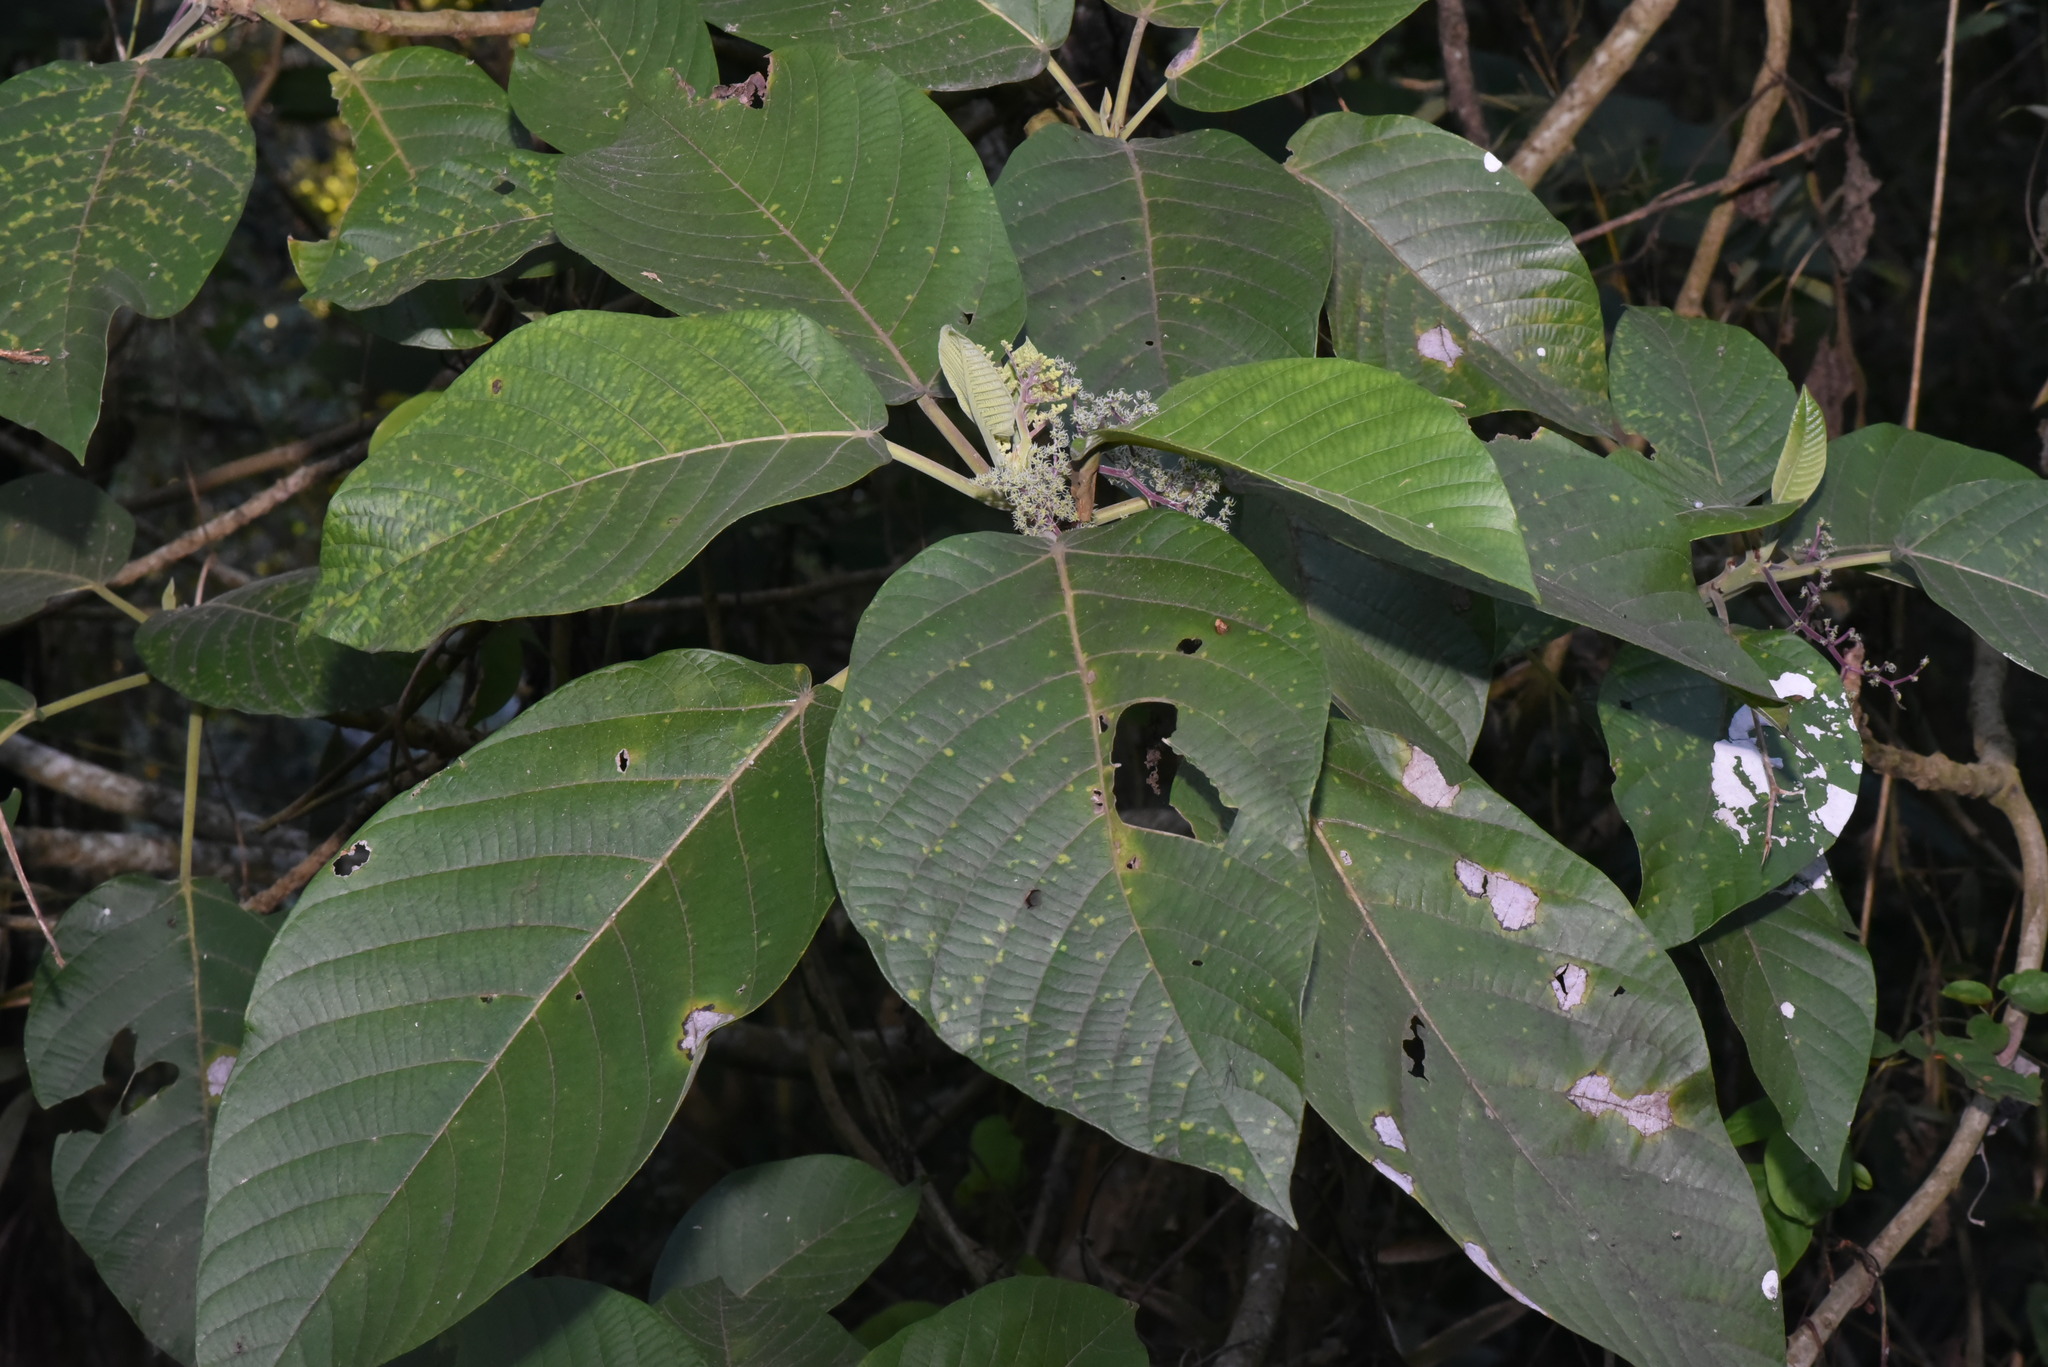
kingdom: Plantae
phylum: Tracheophyta
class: Magnoliopsida
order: Rosales
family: Urticaceae
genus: Dendrocnide
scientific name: Dendrocnide meyeniana
